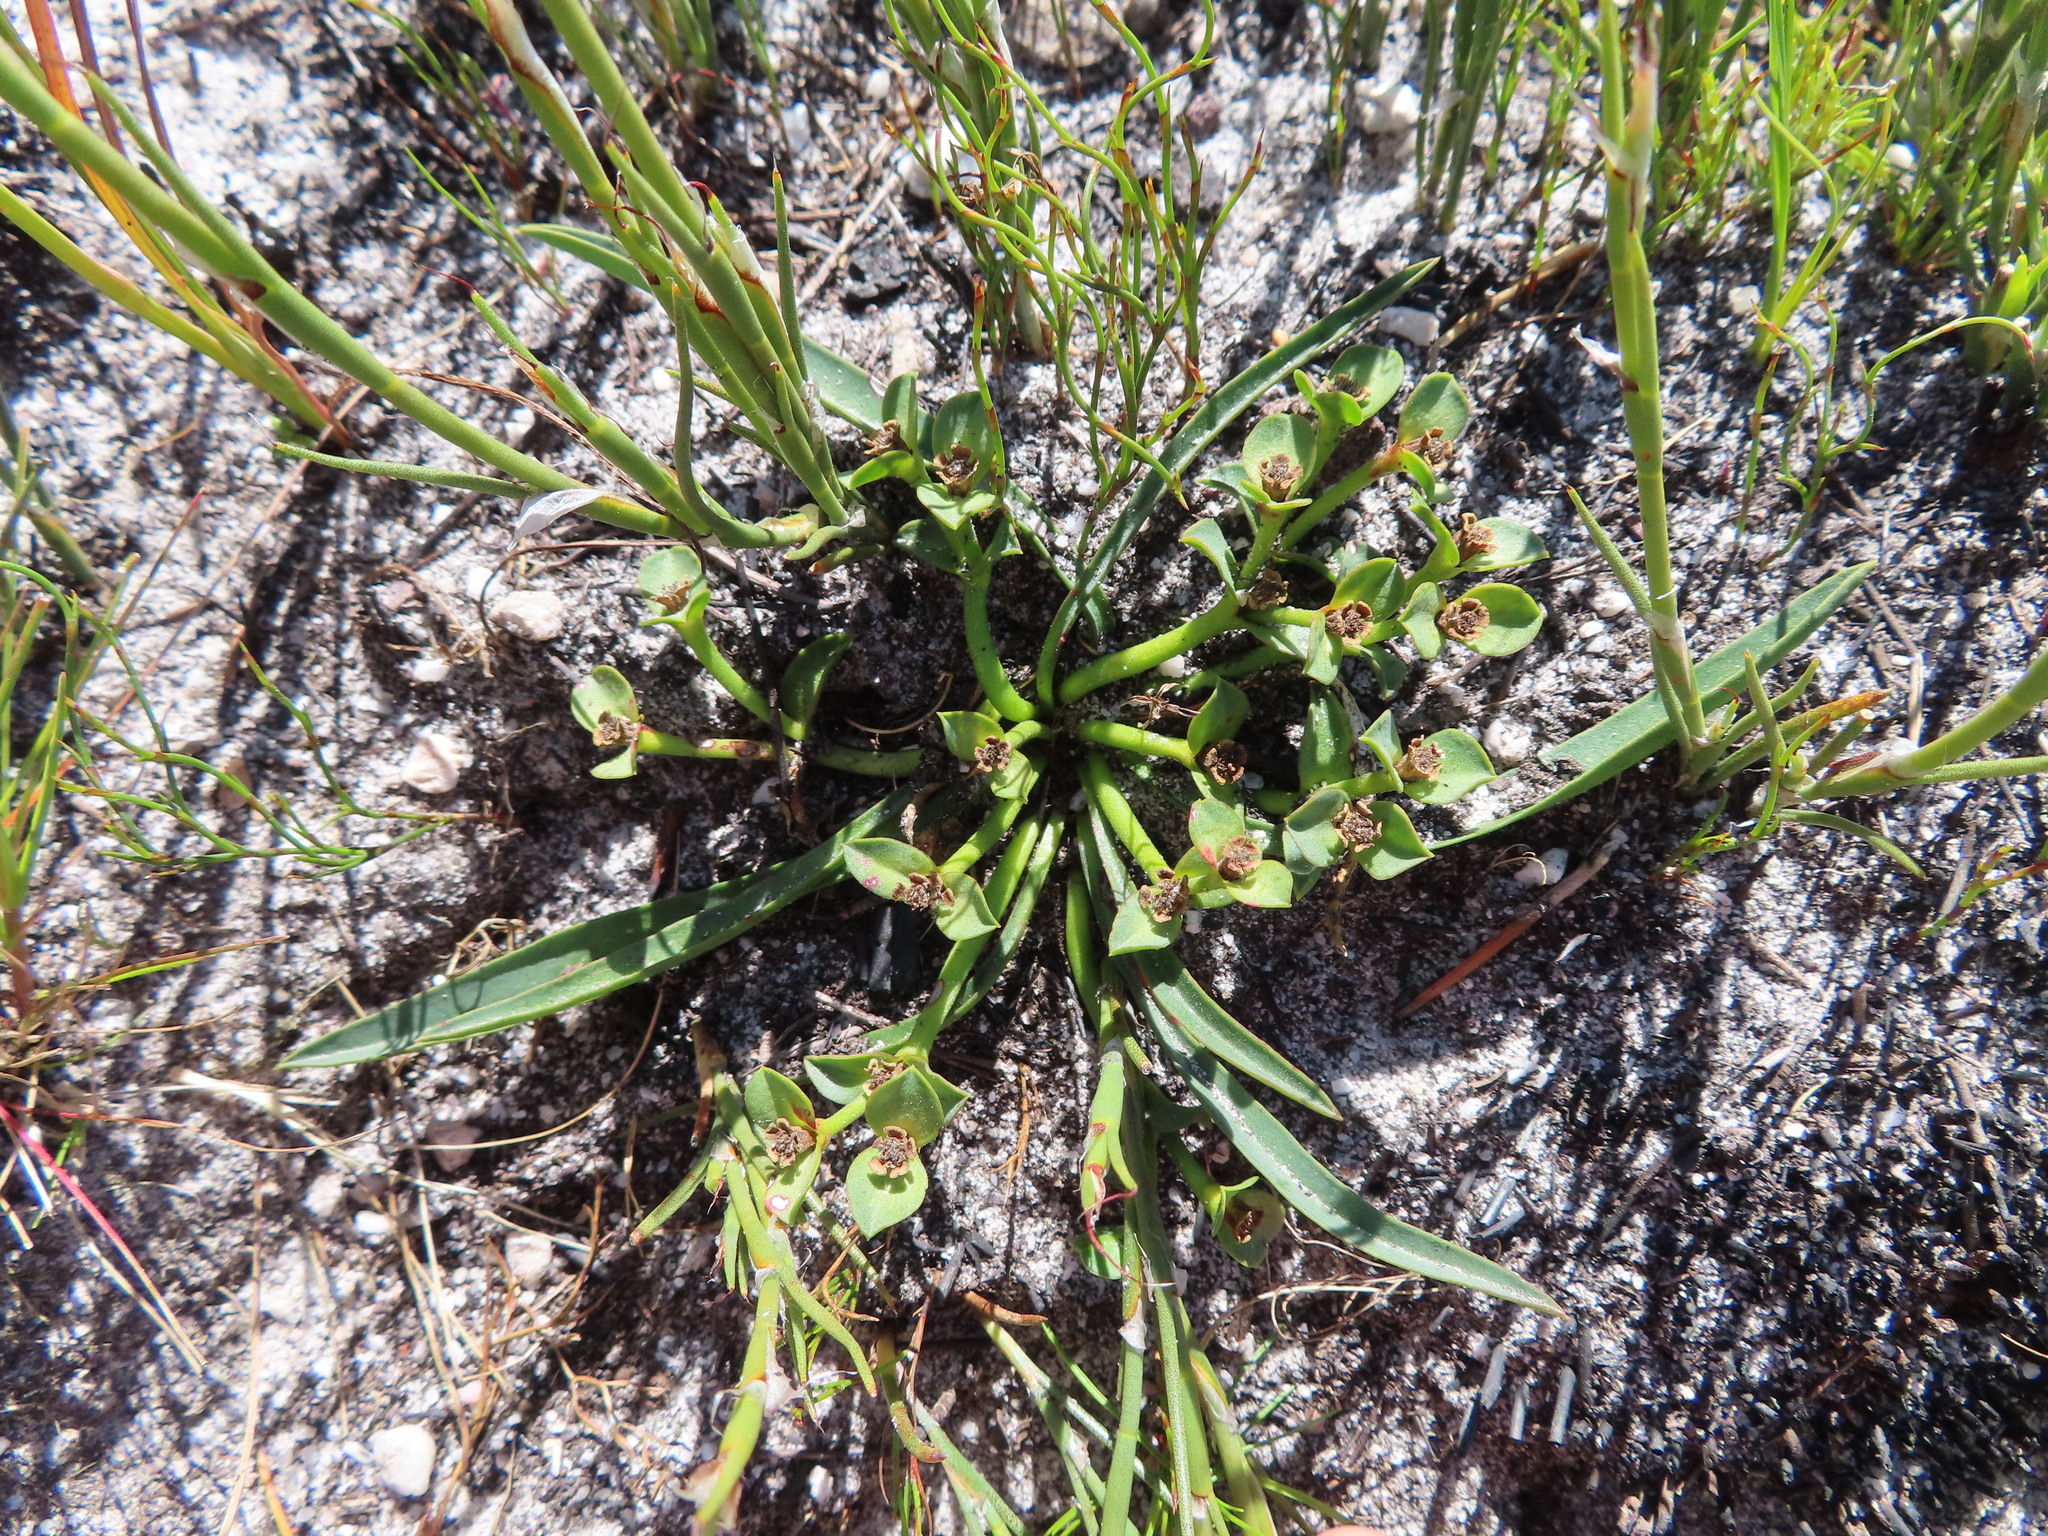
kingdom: Plantae
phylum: Tracheophyta
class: Magnoliopsida
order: Malpighiales
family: Euphorbiaceae
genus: Euphorbia
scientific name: Euphorbia silenifolia
